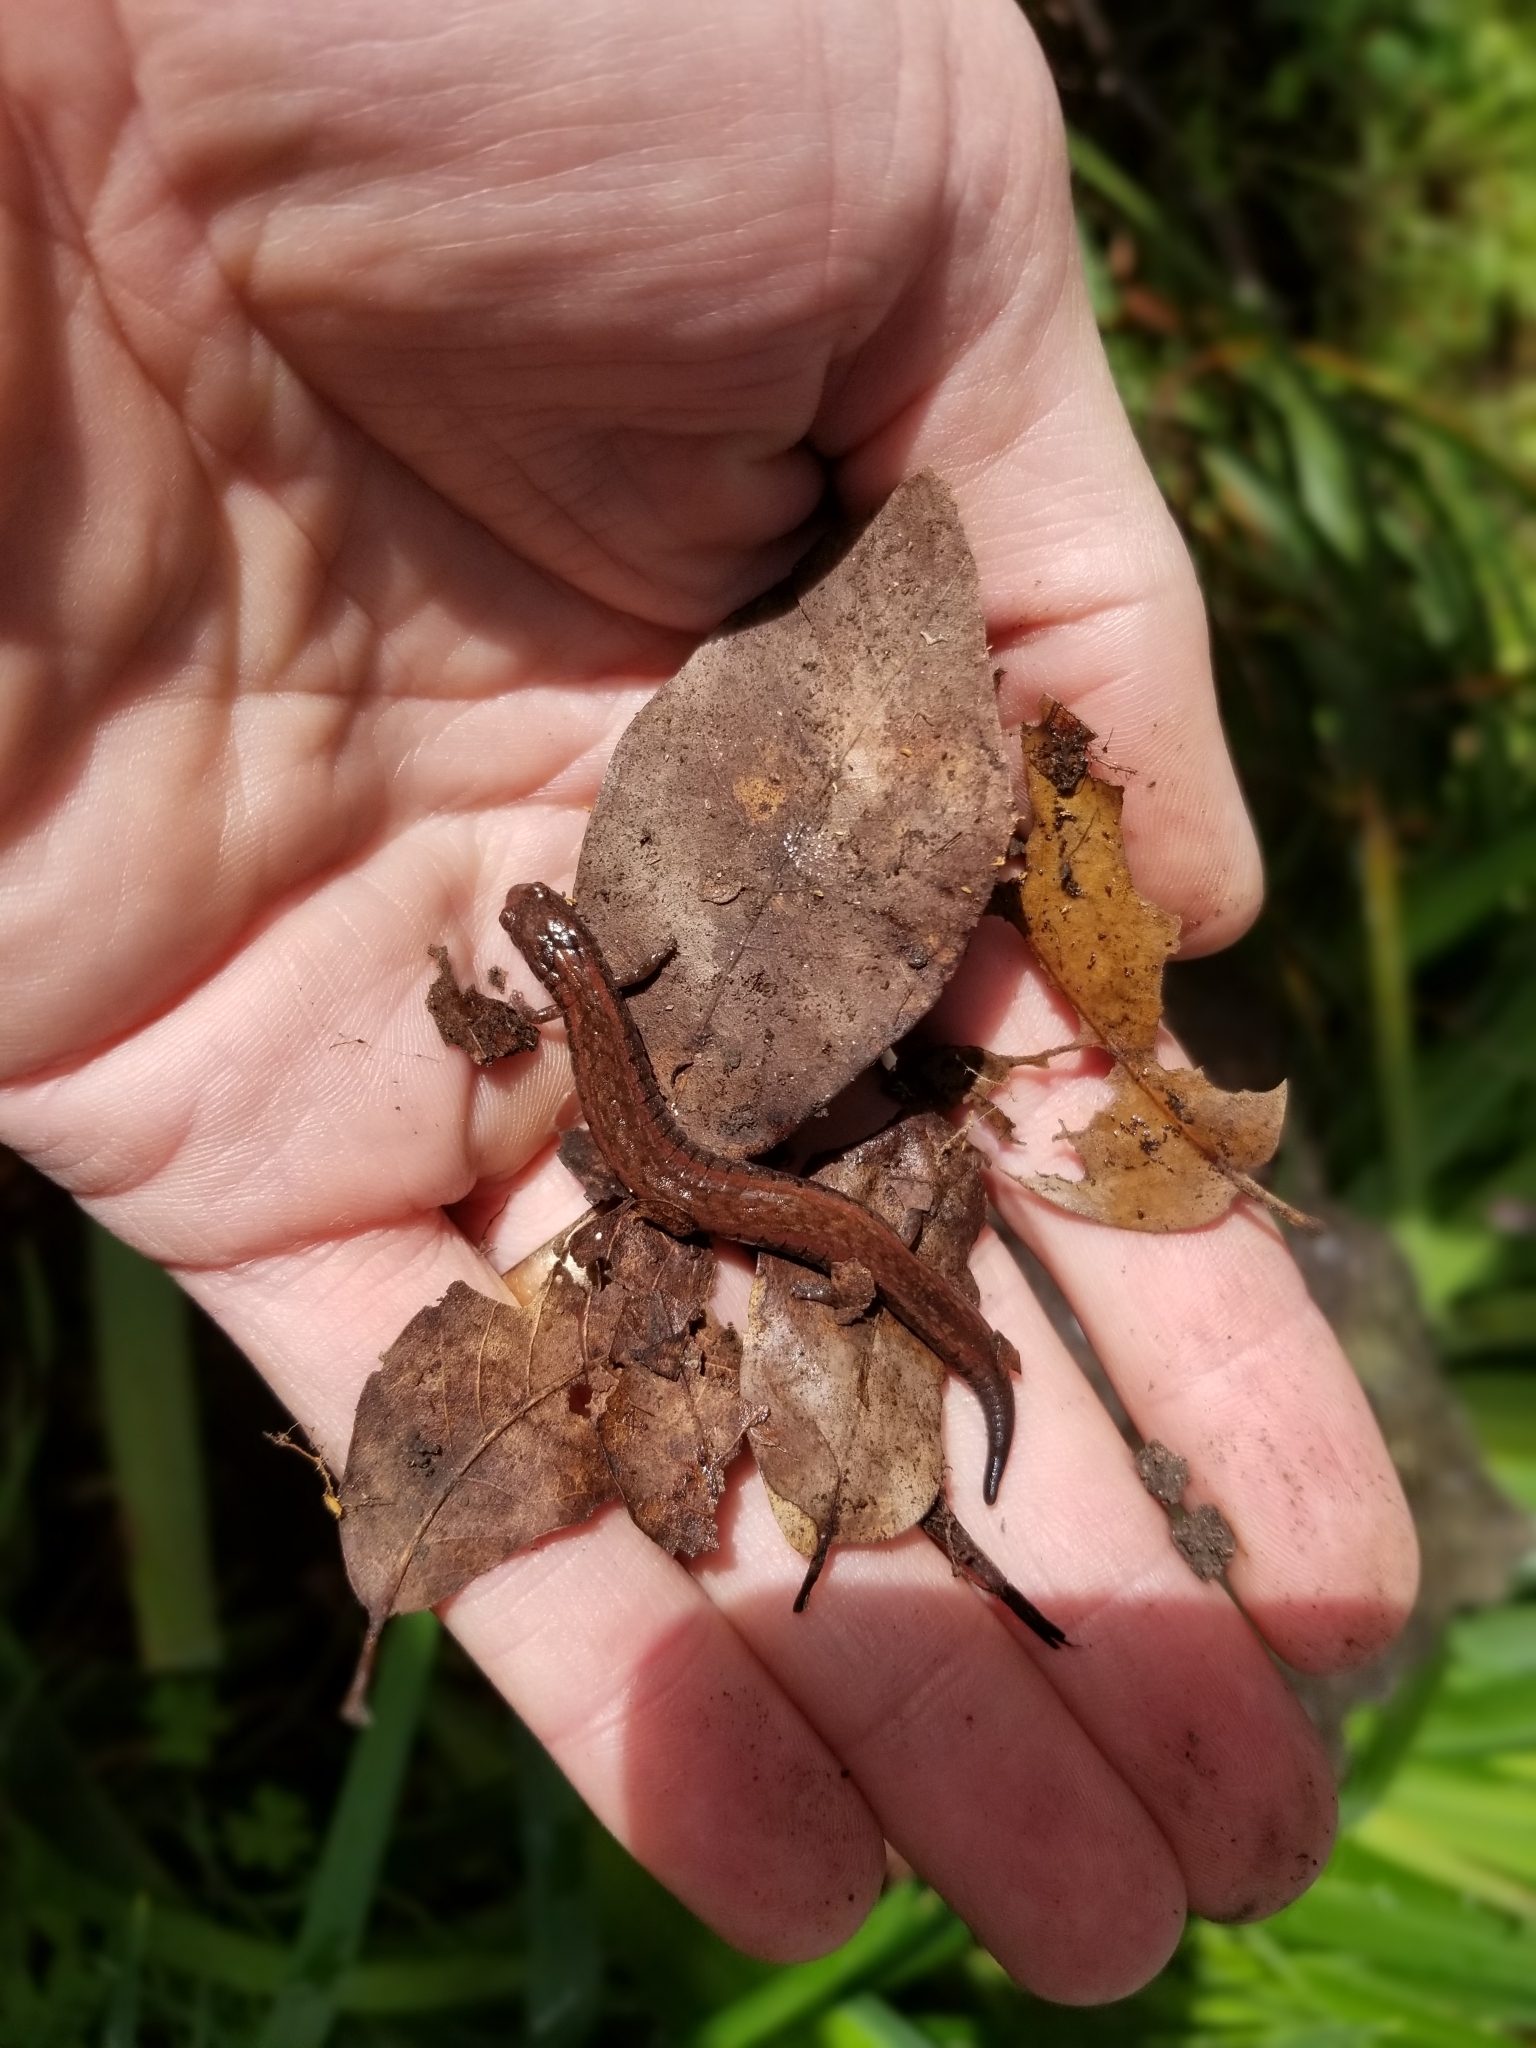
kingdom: Animalia
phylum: Chordata
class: Amphibia
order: Caudata
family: Plethodontidae
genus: Batrachoseps
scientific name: Batrachoseps attenuatus
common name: California slender salamander
